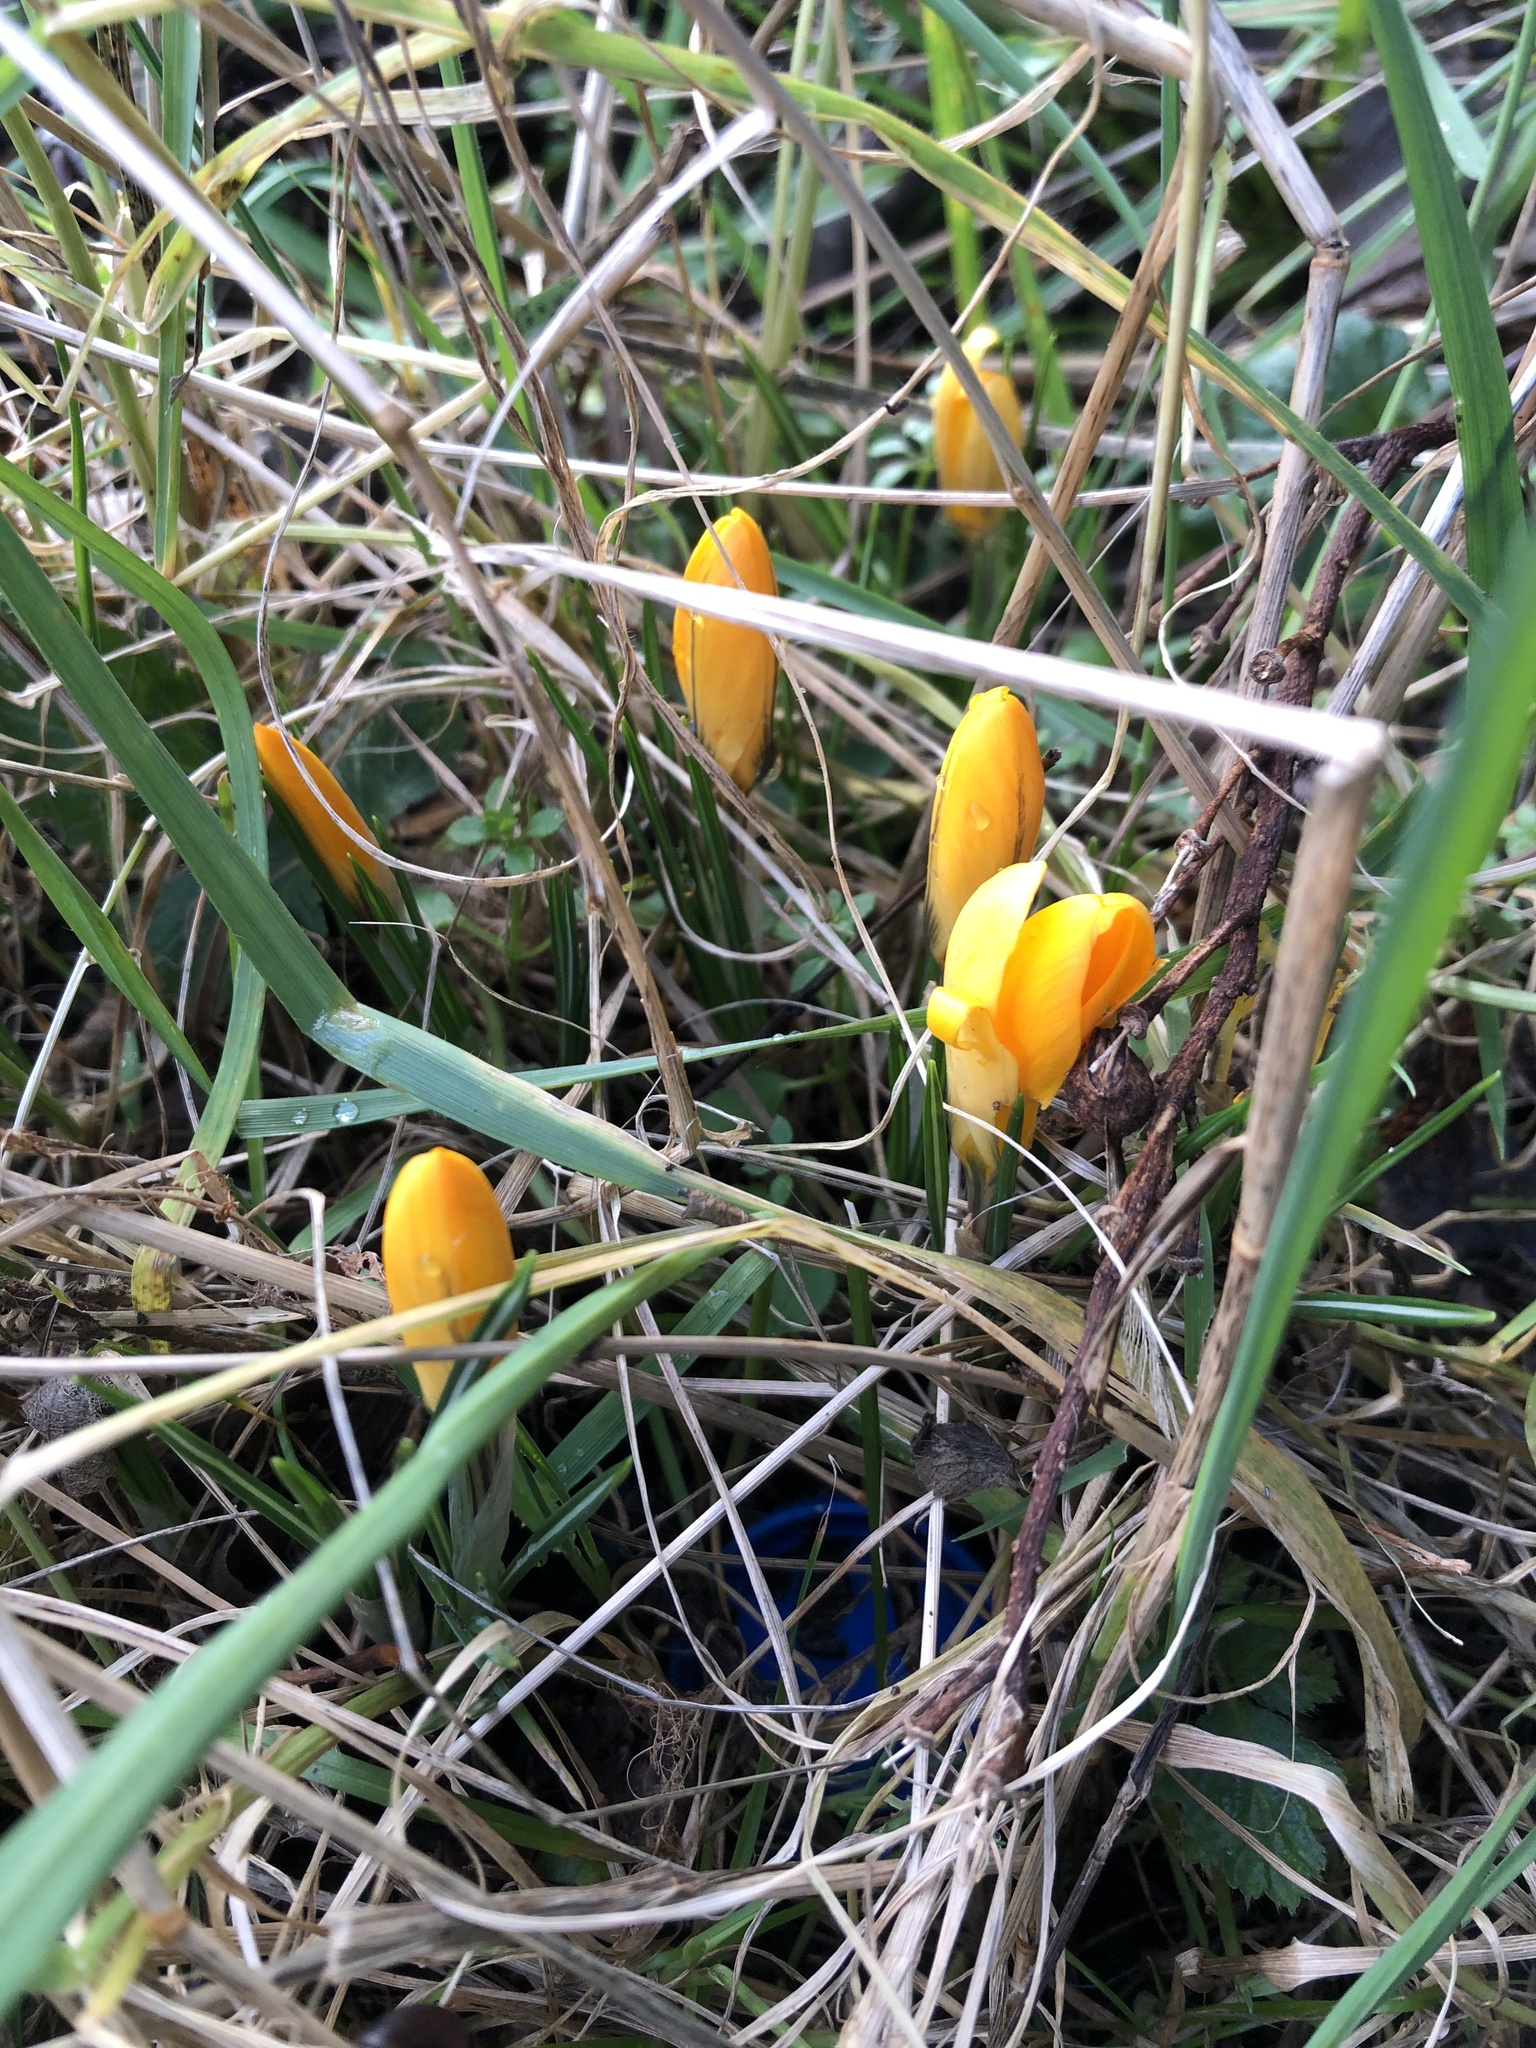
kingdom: Plantae
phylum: Tracheophyta
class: Liliopsida
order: Asparagales
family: Iridaceae
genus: Crocus
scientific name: Crocus luteus
